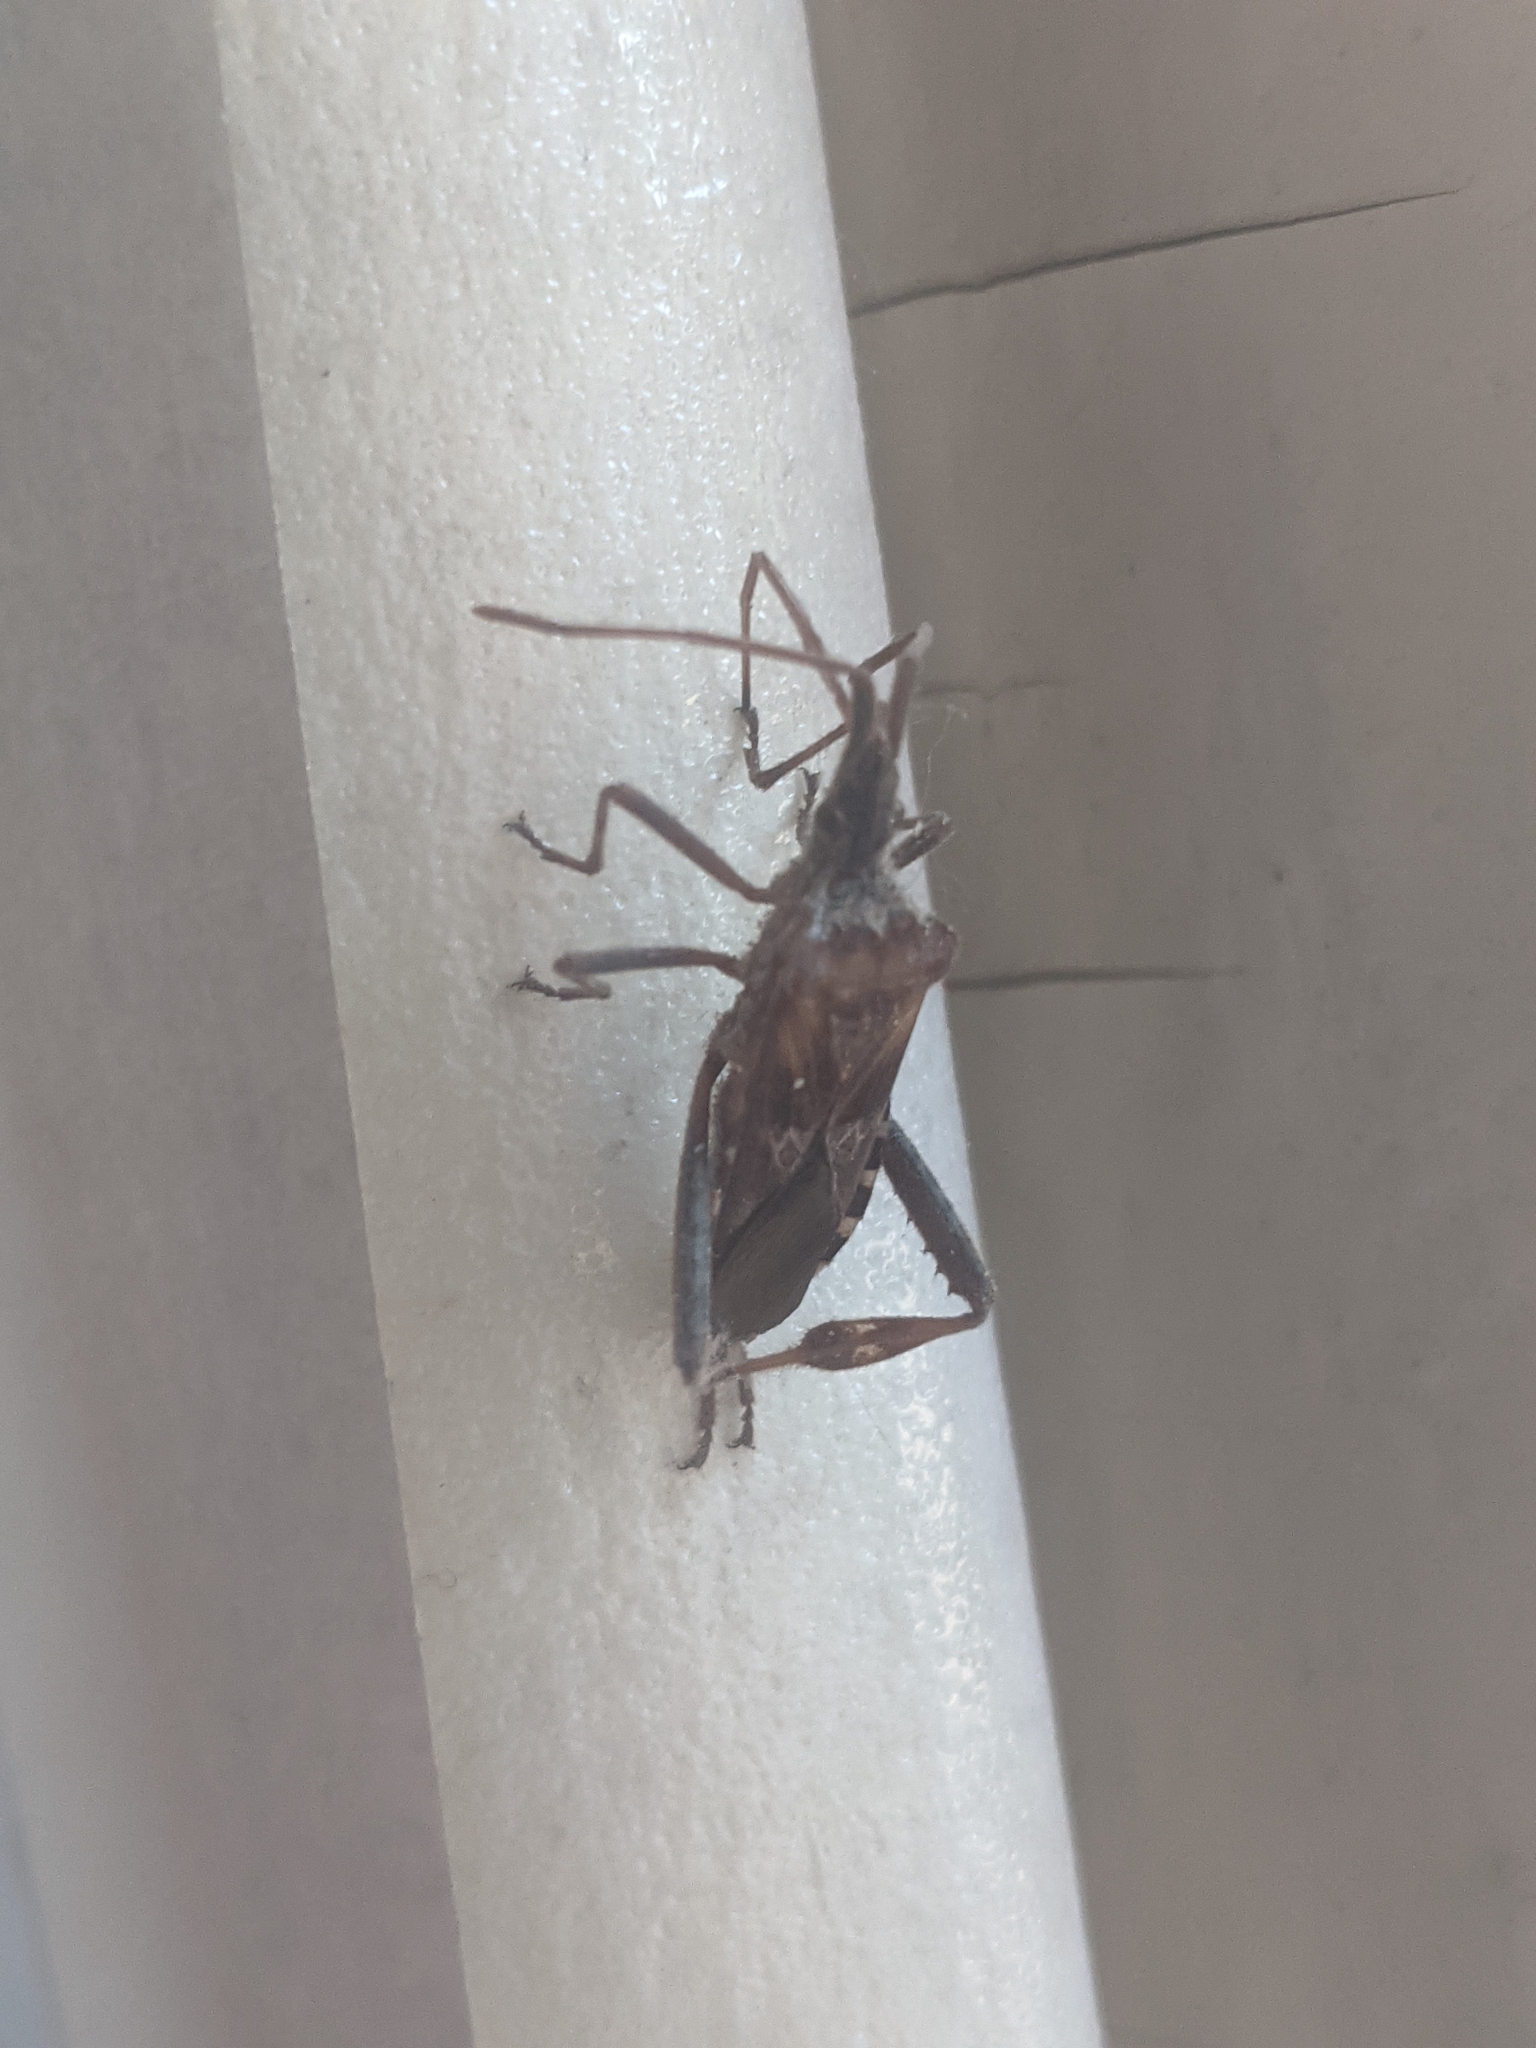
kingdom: Animalia
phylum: Arthropoda
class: Insecta
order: Hemiptera
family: Coreidae
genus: Leptoglossus
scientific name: Leptoglossus occidentalis
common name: Western conifer-seed bug
